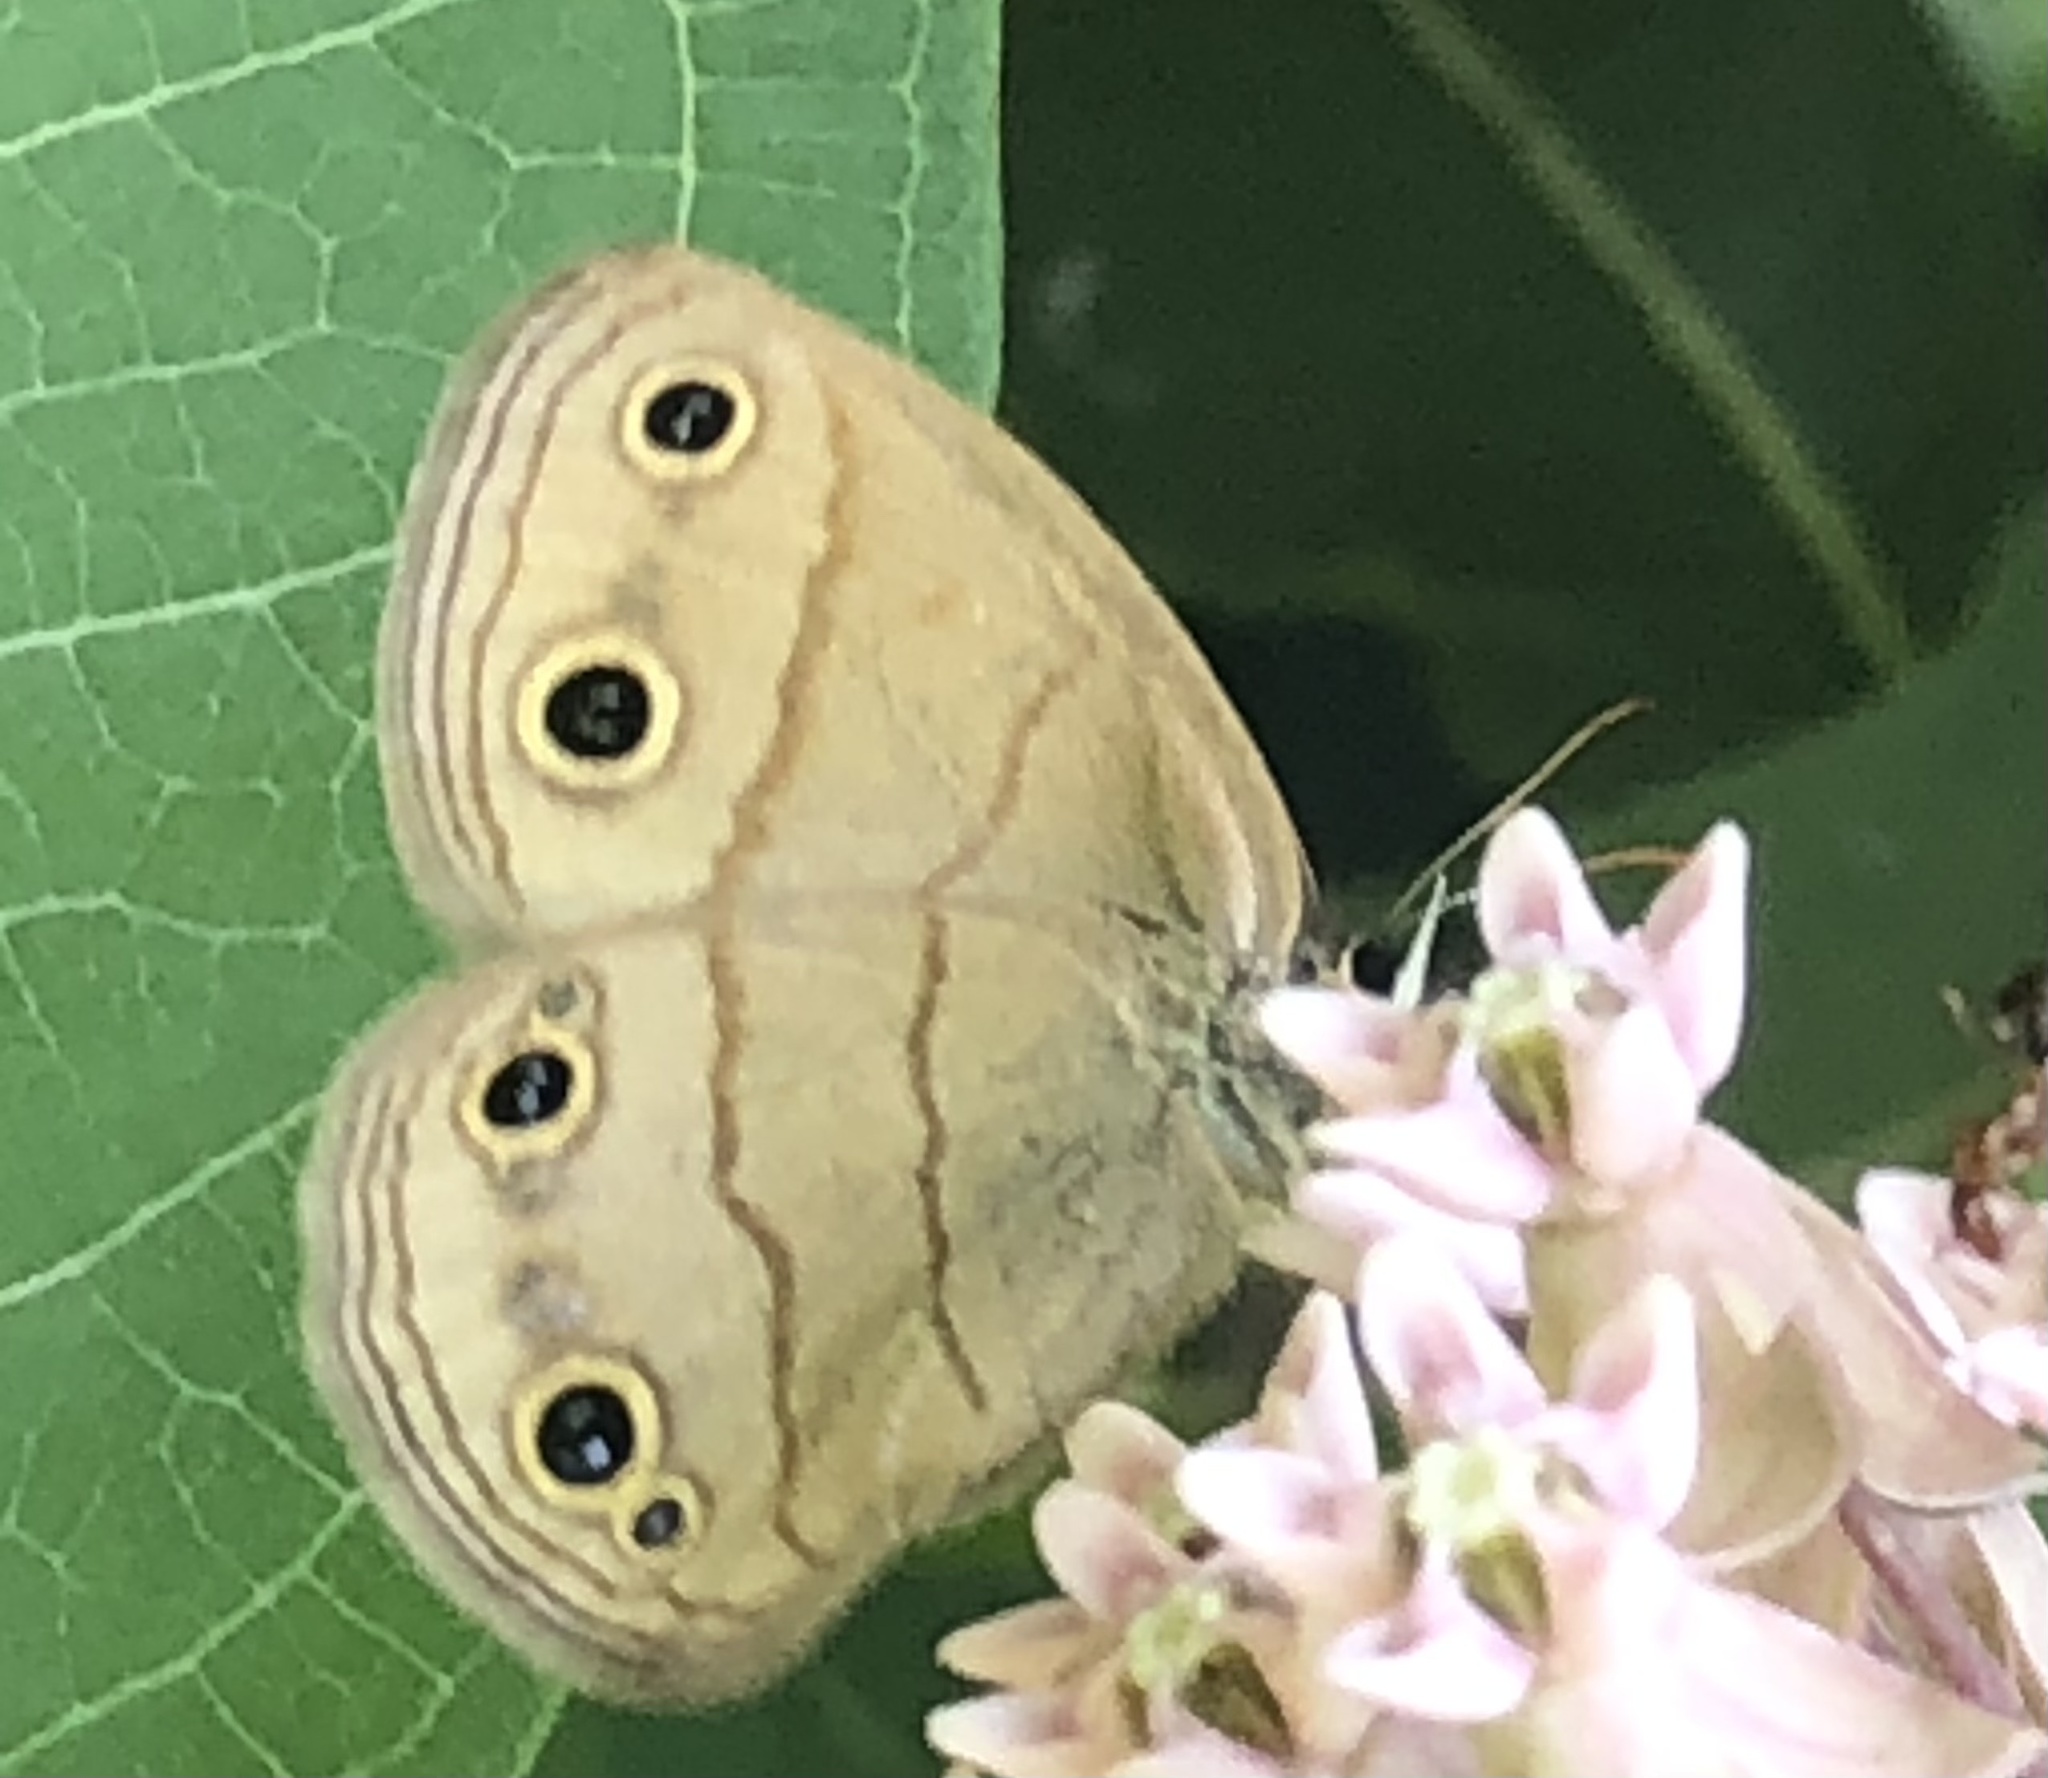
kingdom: Animalia
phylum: Arthropoda
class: Insecta
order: Lepidoptera
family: Nymphalidae
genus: Euptychia
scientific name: Euptychia cymela
